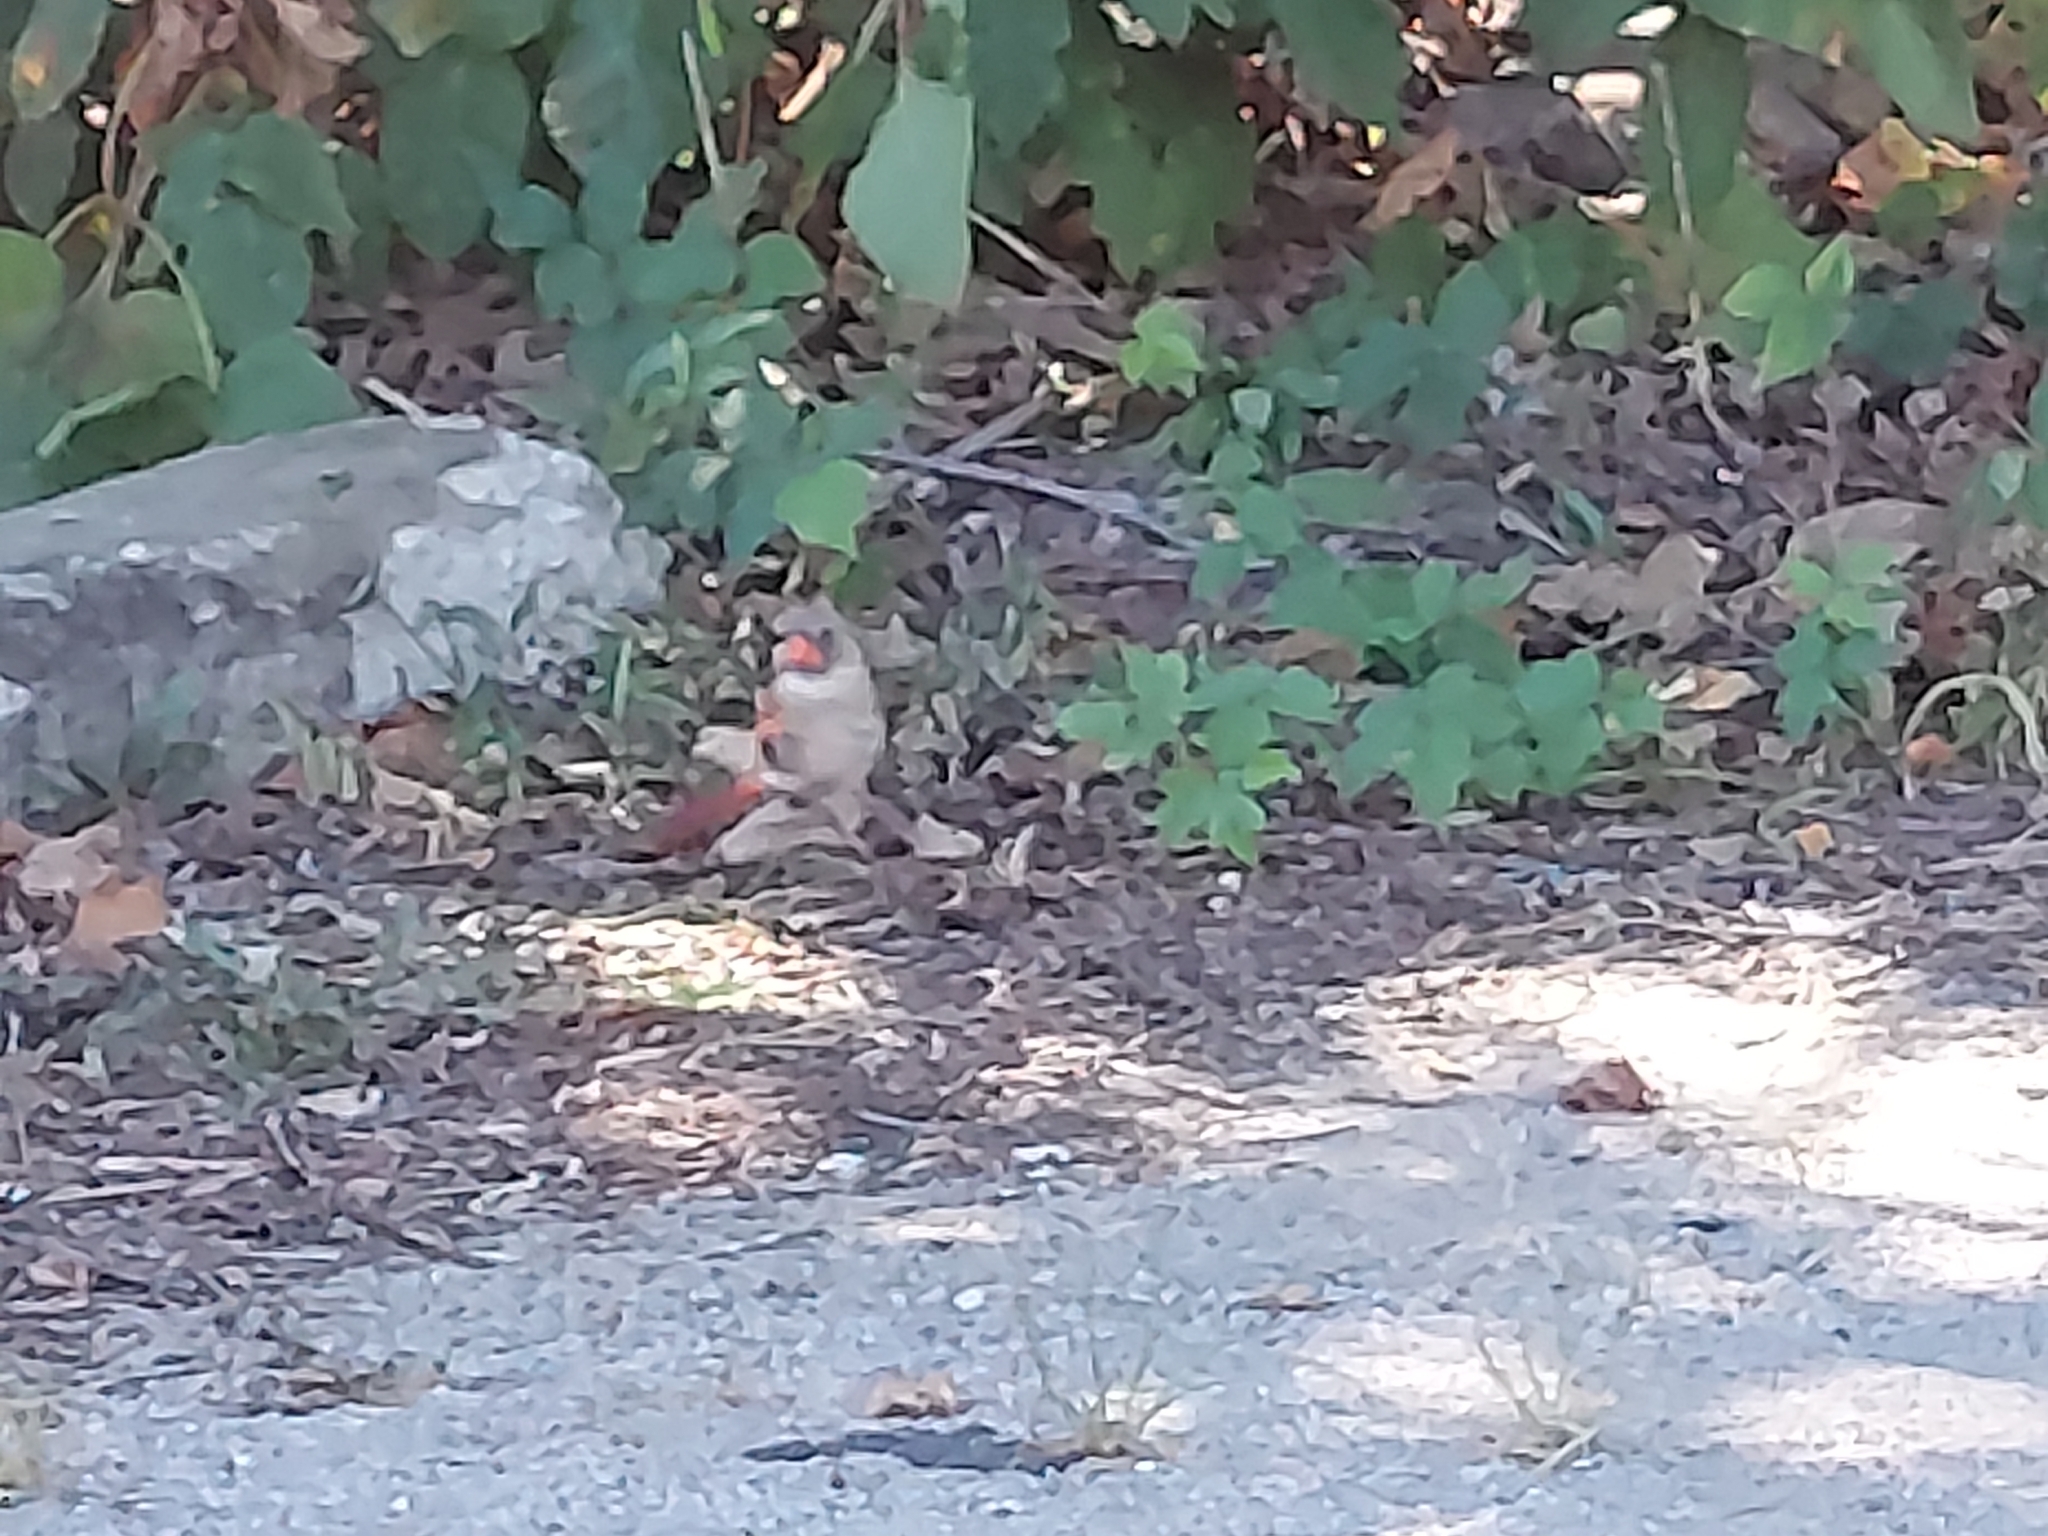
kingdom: Animalia
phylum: Chordata
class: Aves
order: Passeriformes
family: Cardinalidae
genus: Cardinalis
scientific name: Cardinalis cardinalis
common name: Northern cardinal
